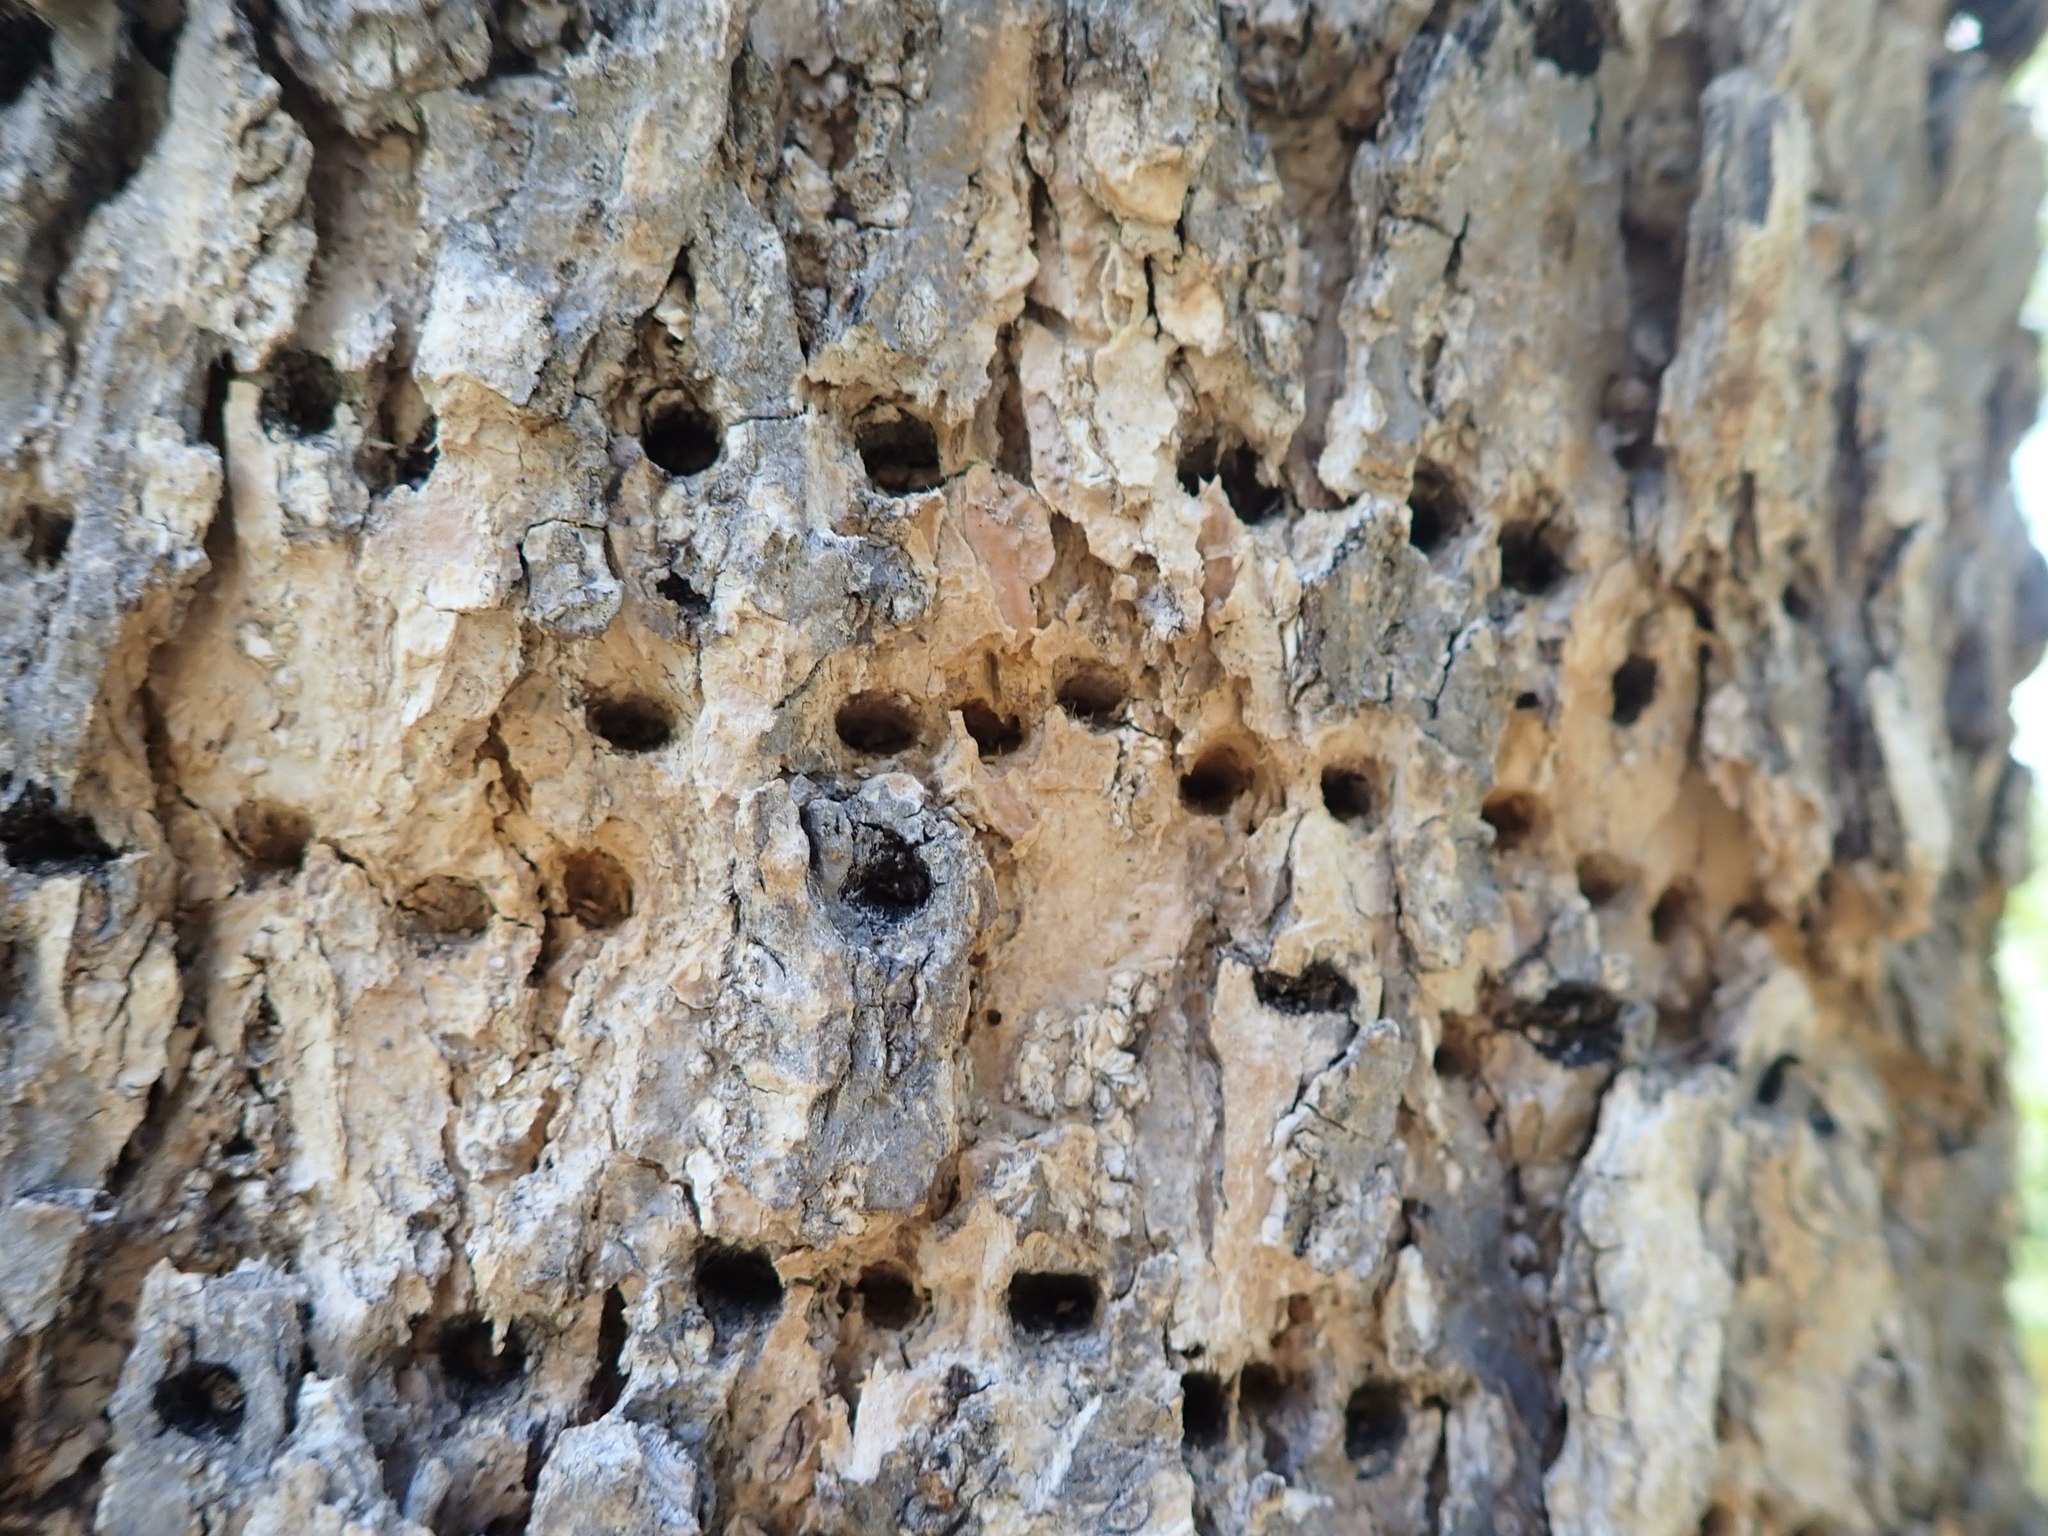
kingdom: Animalia
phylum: Chordata
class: Aves
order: Piciformes
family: Picidae
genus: Sphyrapicus
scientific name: Sphyrapicus varius
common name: Yellow-bellied sapsucker
